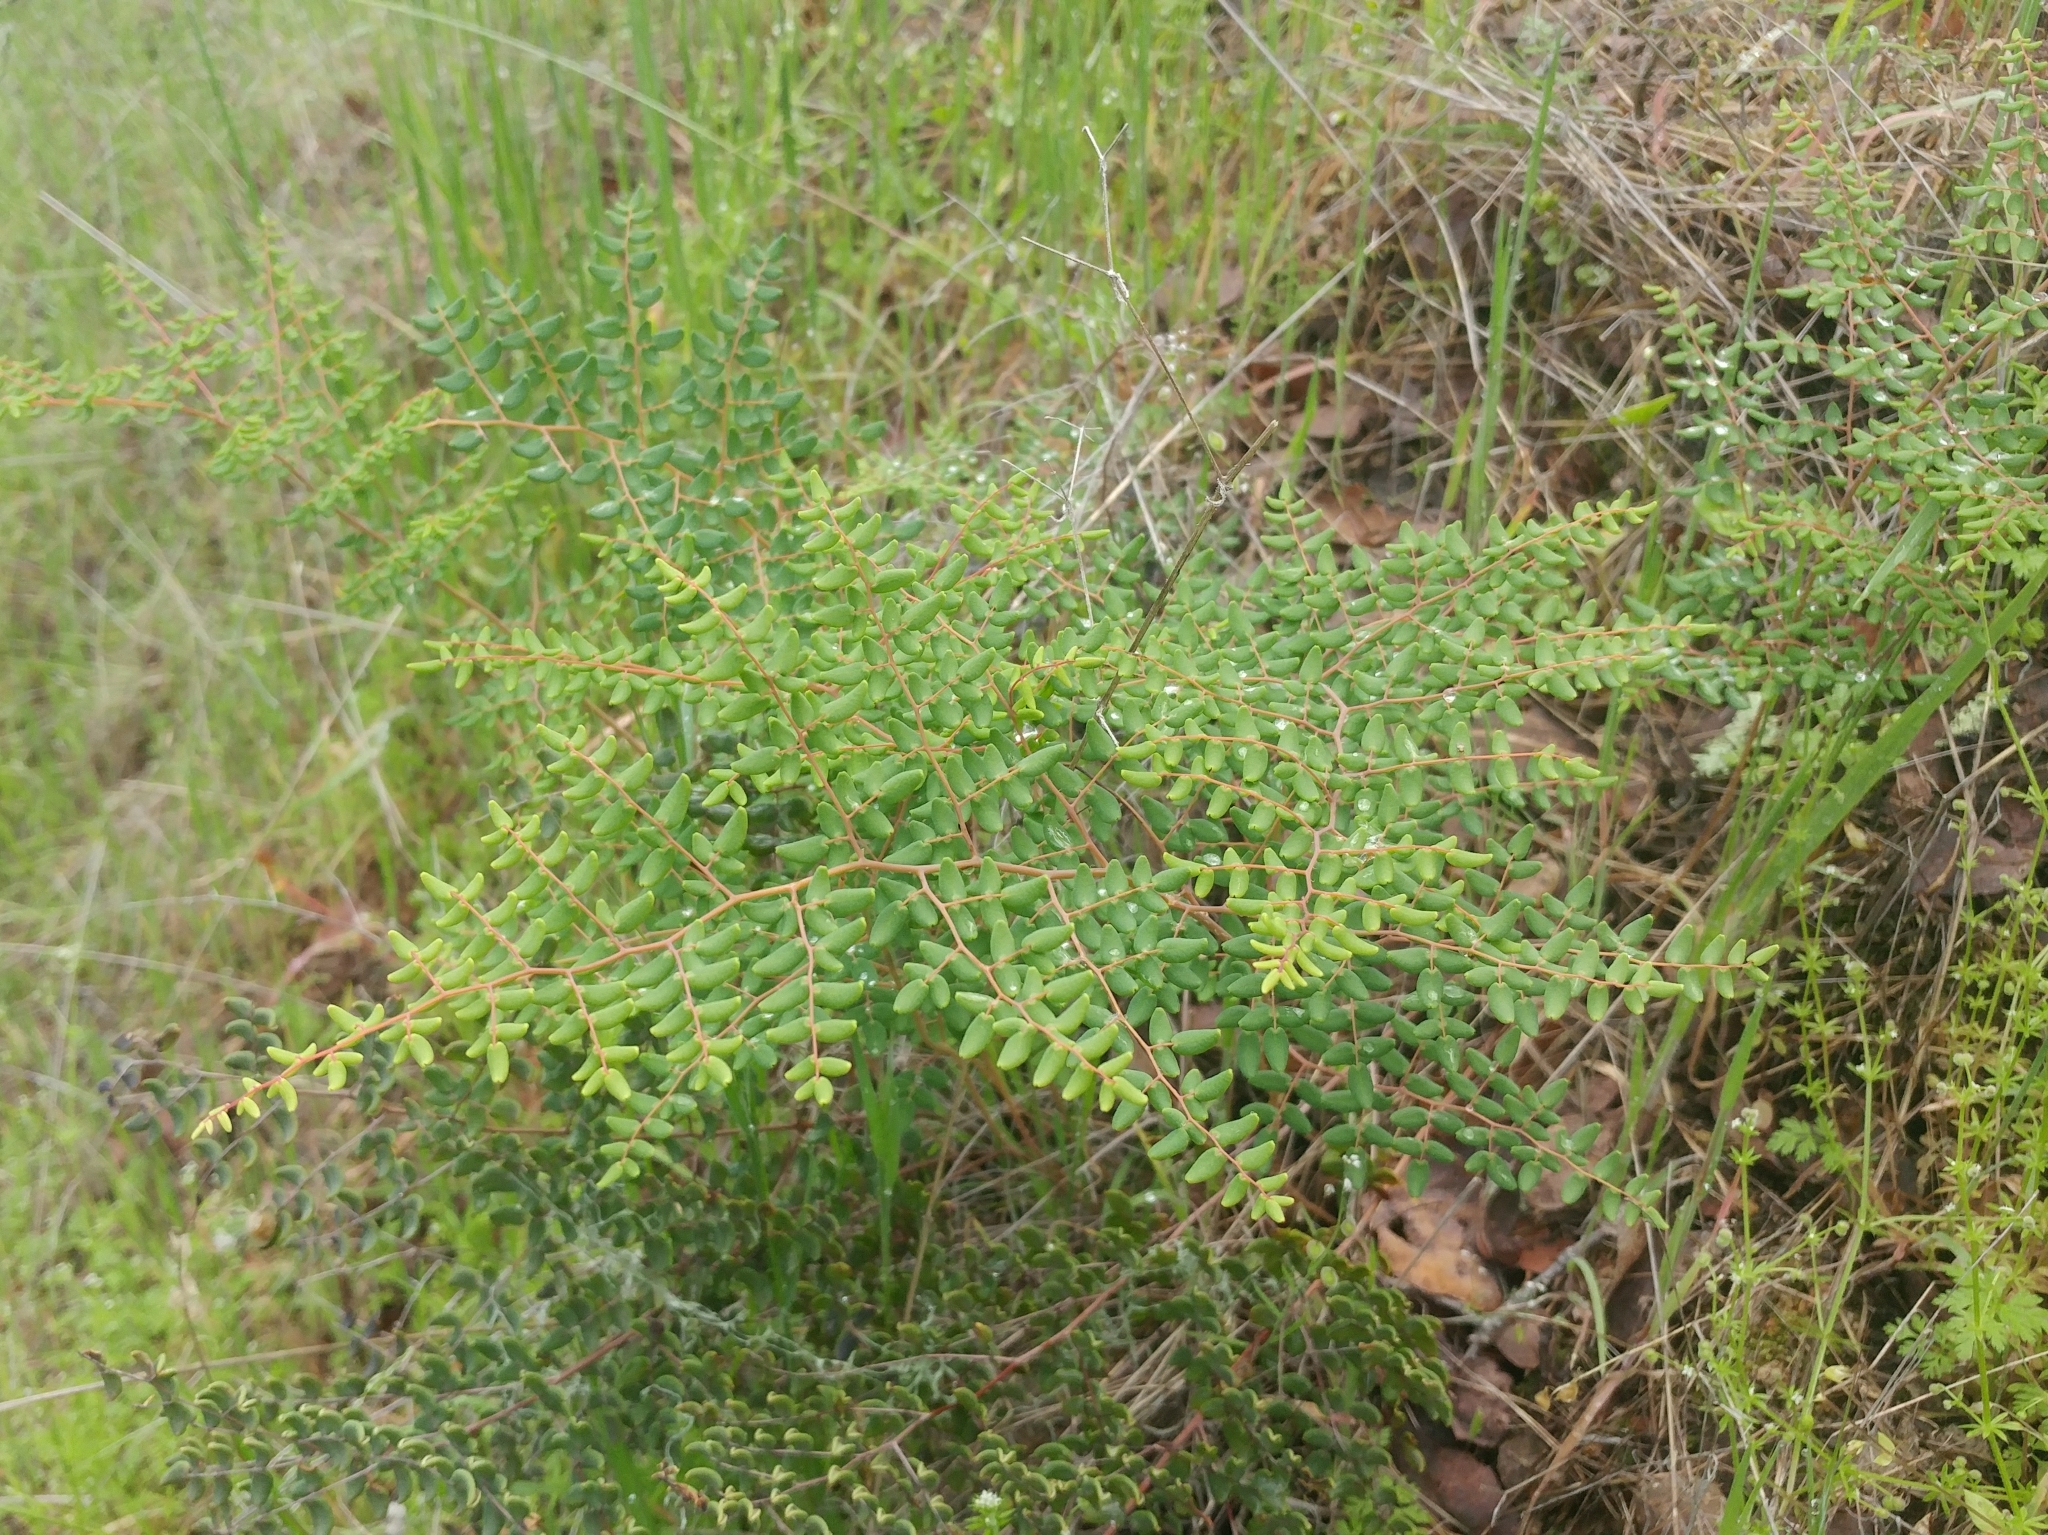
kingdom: Plantae
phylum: Tracheophyta
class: Polypodiopsida
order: Polypodiales
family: Pteridaceae
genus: Pellaea
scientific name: Pellaea andromedifolia
